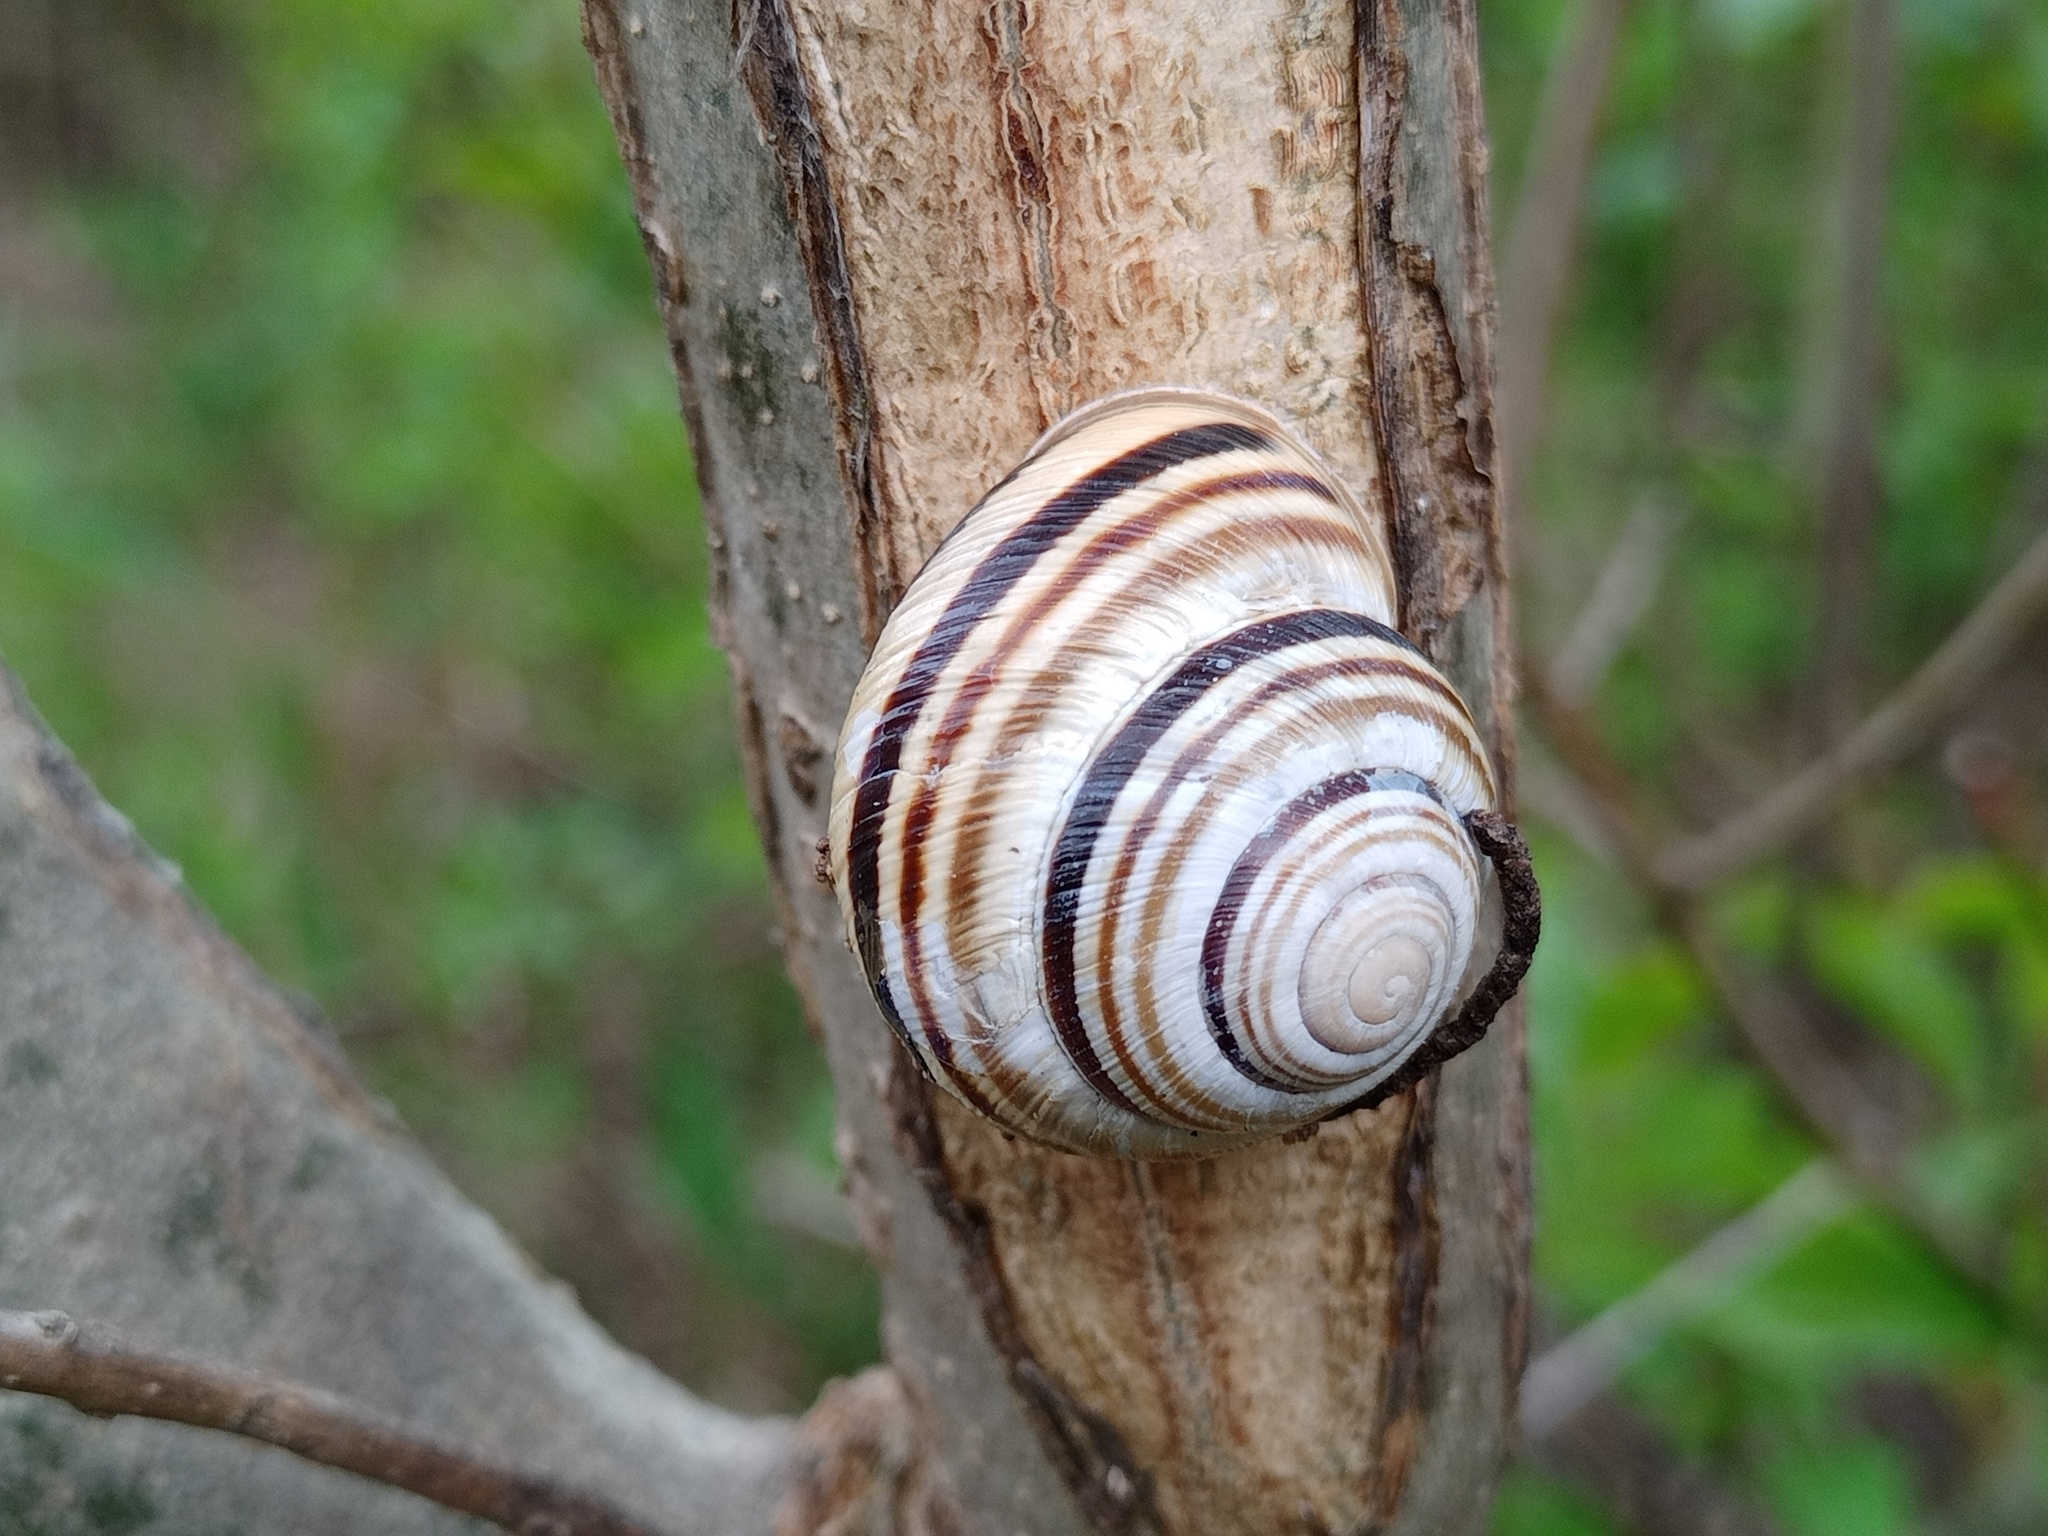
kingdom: Animalia
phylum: Mollusca
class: Gastropoda
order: Stylommatophora
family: Helicidae
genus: Caucasotachea
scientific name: Caucasotachea vindobonensis
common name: European helicid land snail
